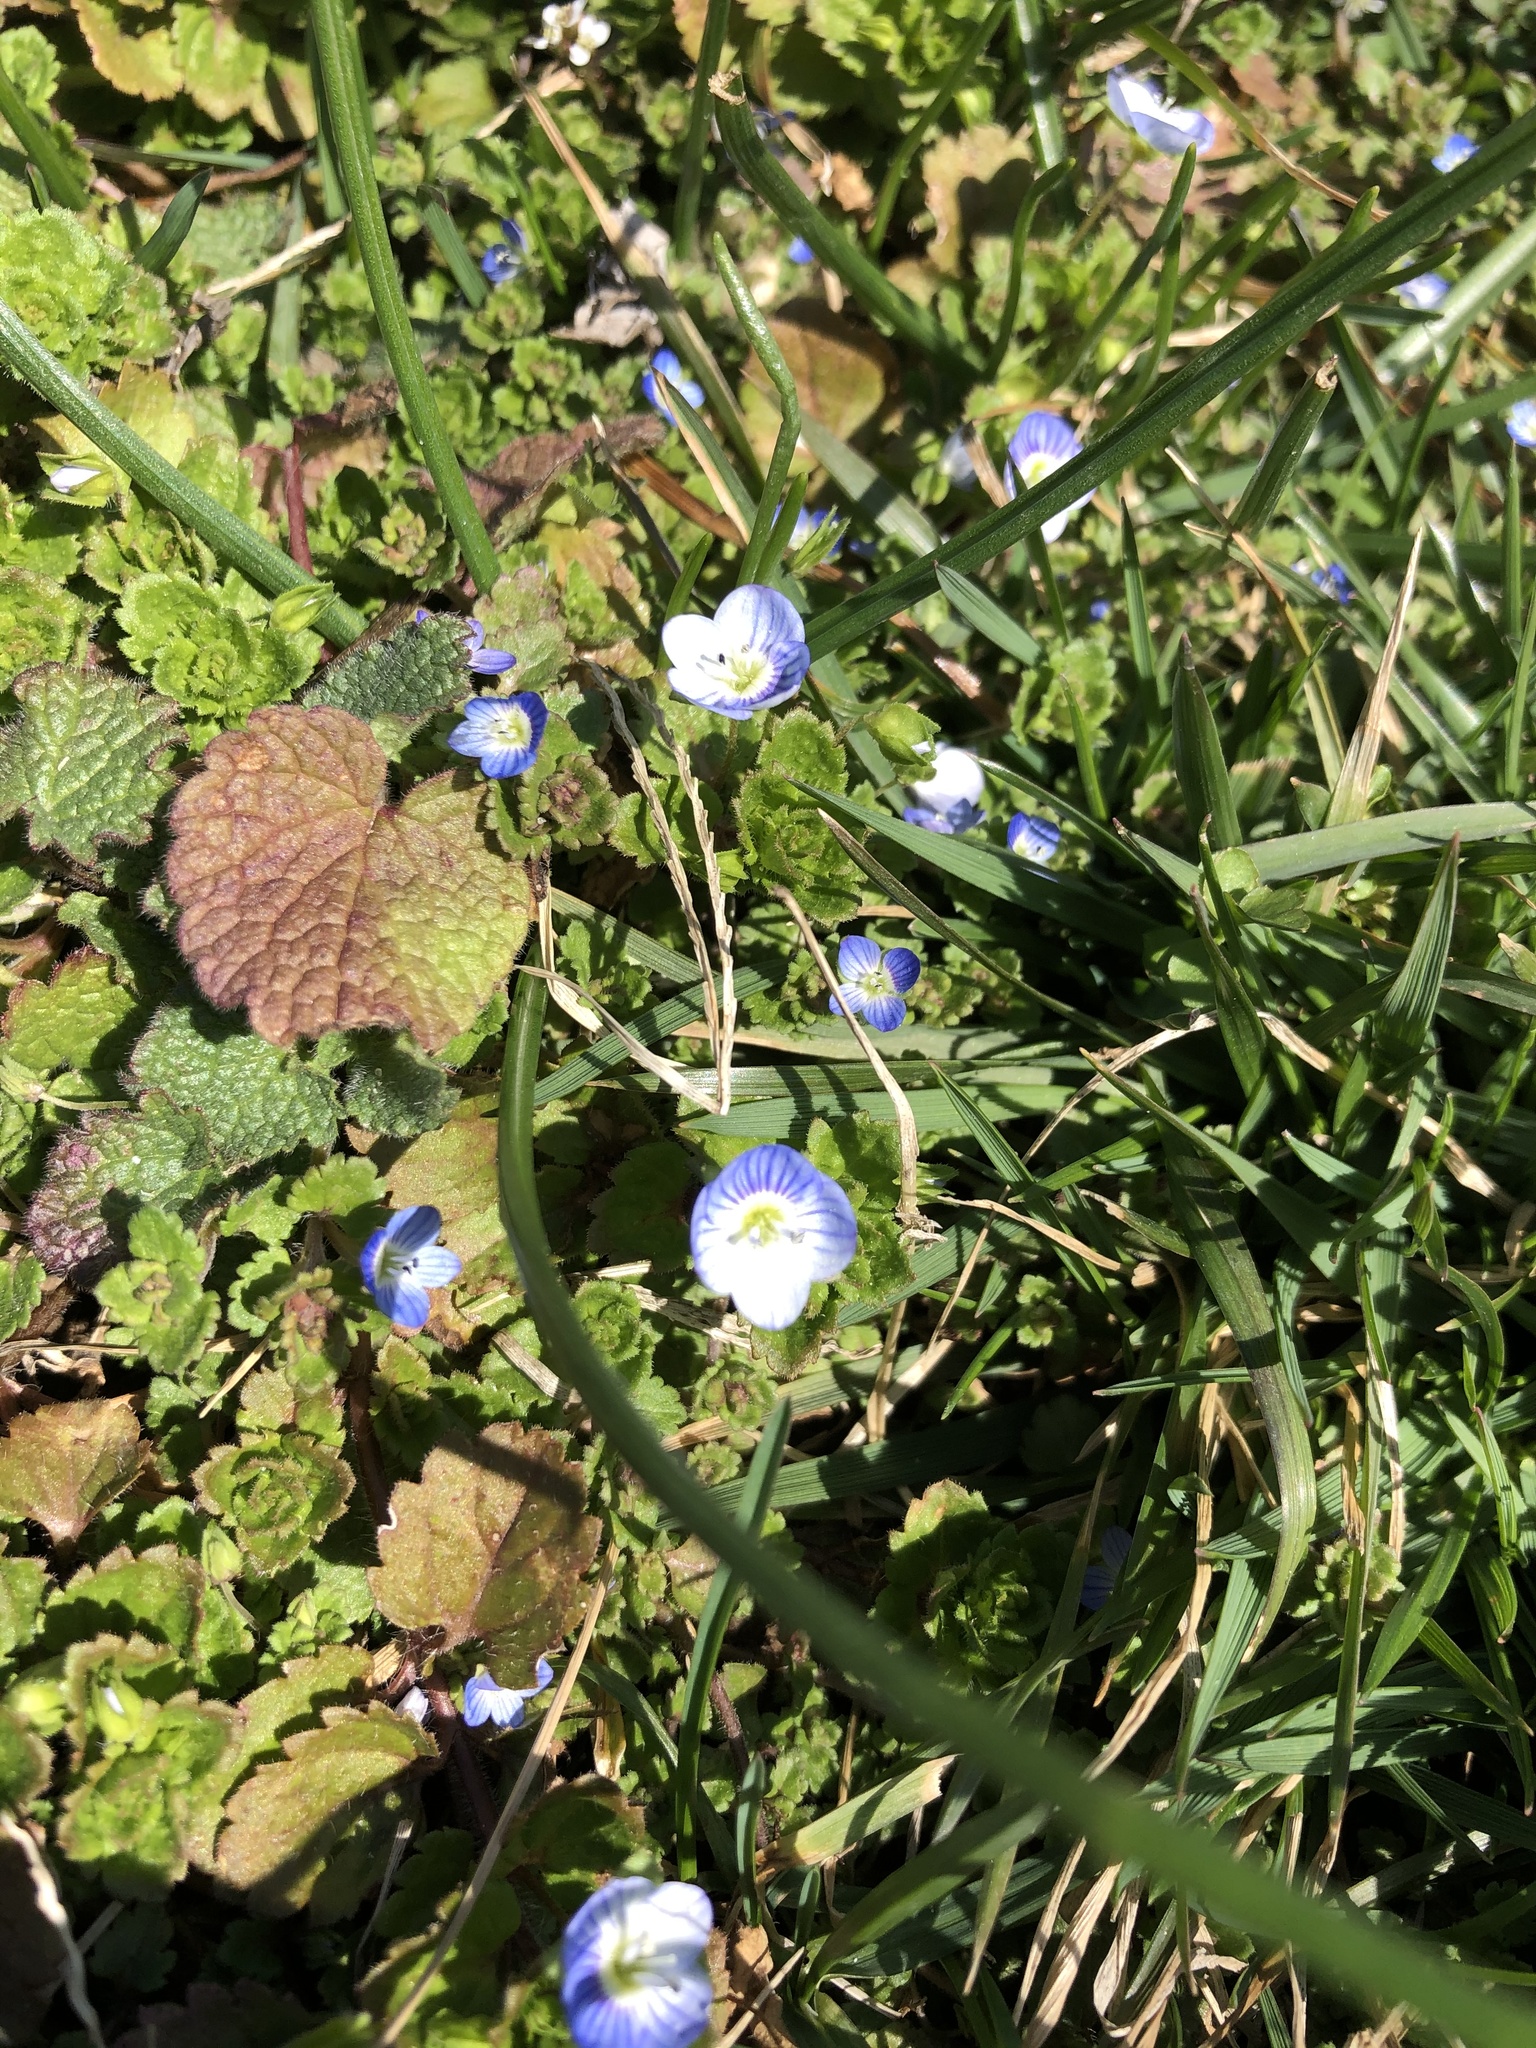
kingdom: Plantae
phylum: Tracheophyta
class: Magnoliopsida
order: Lamiales
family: Plantaginaceae
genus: Veronica
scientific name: Veronica persica
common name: Common field-speedwell
